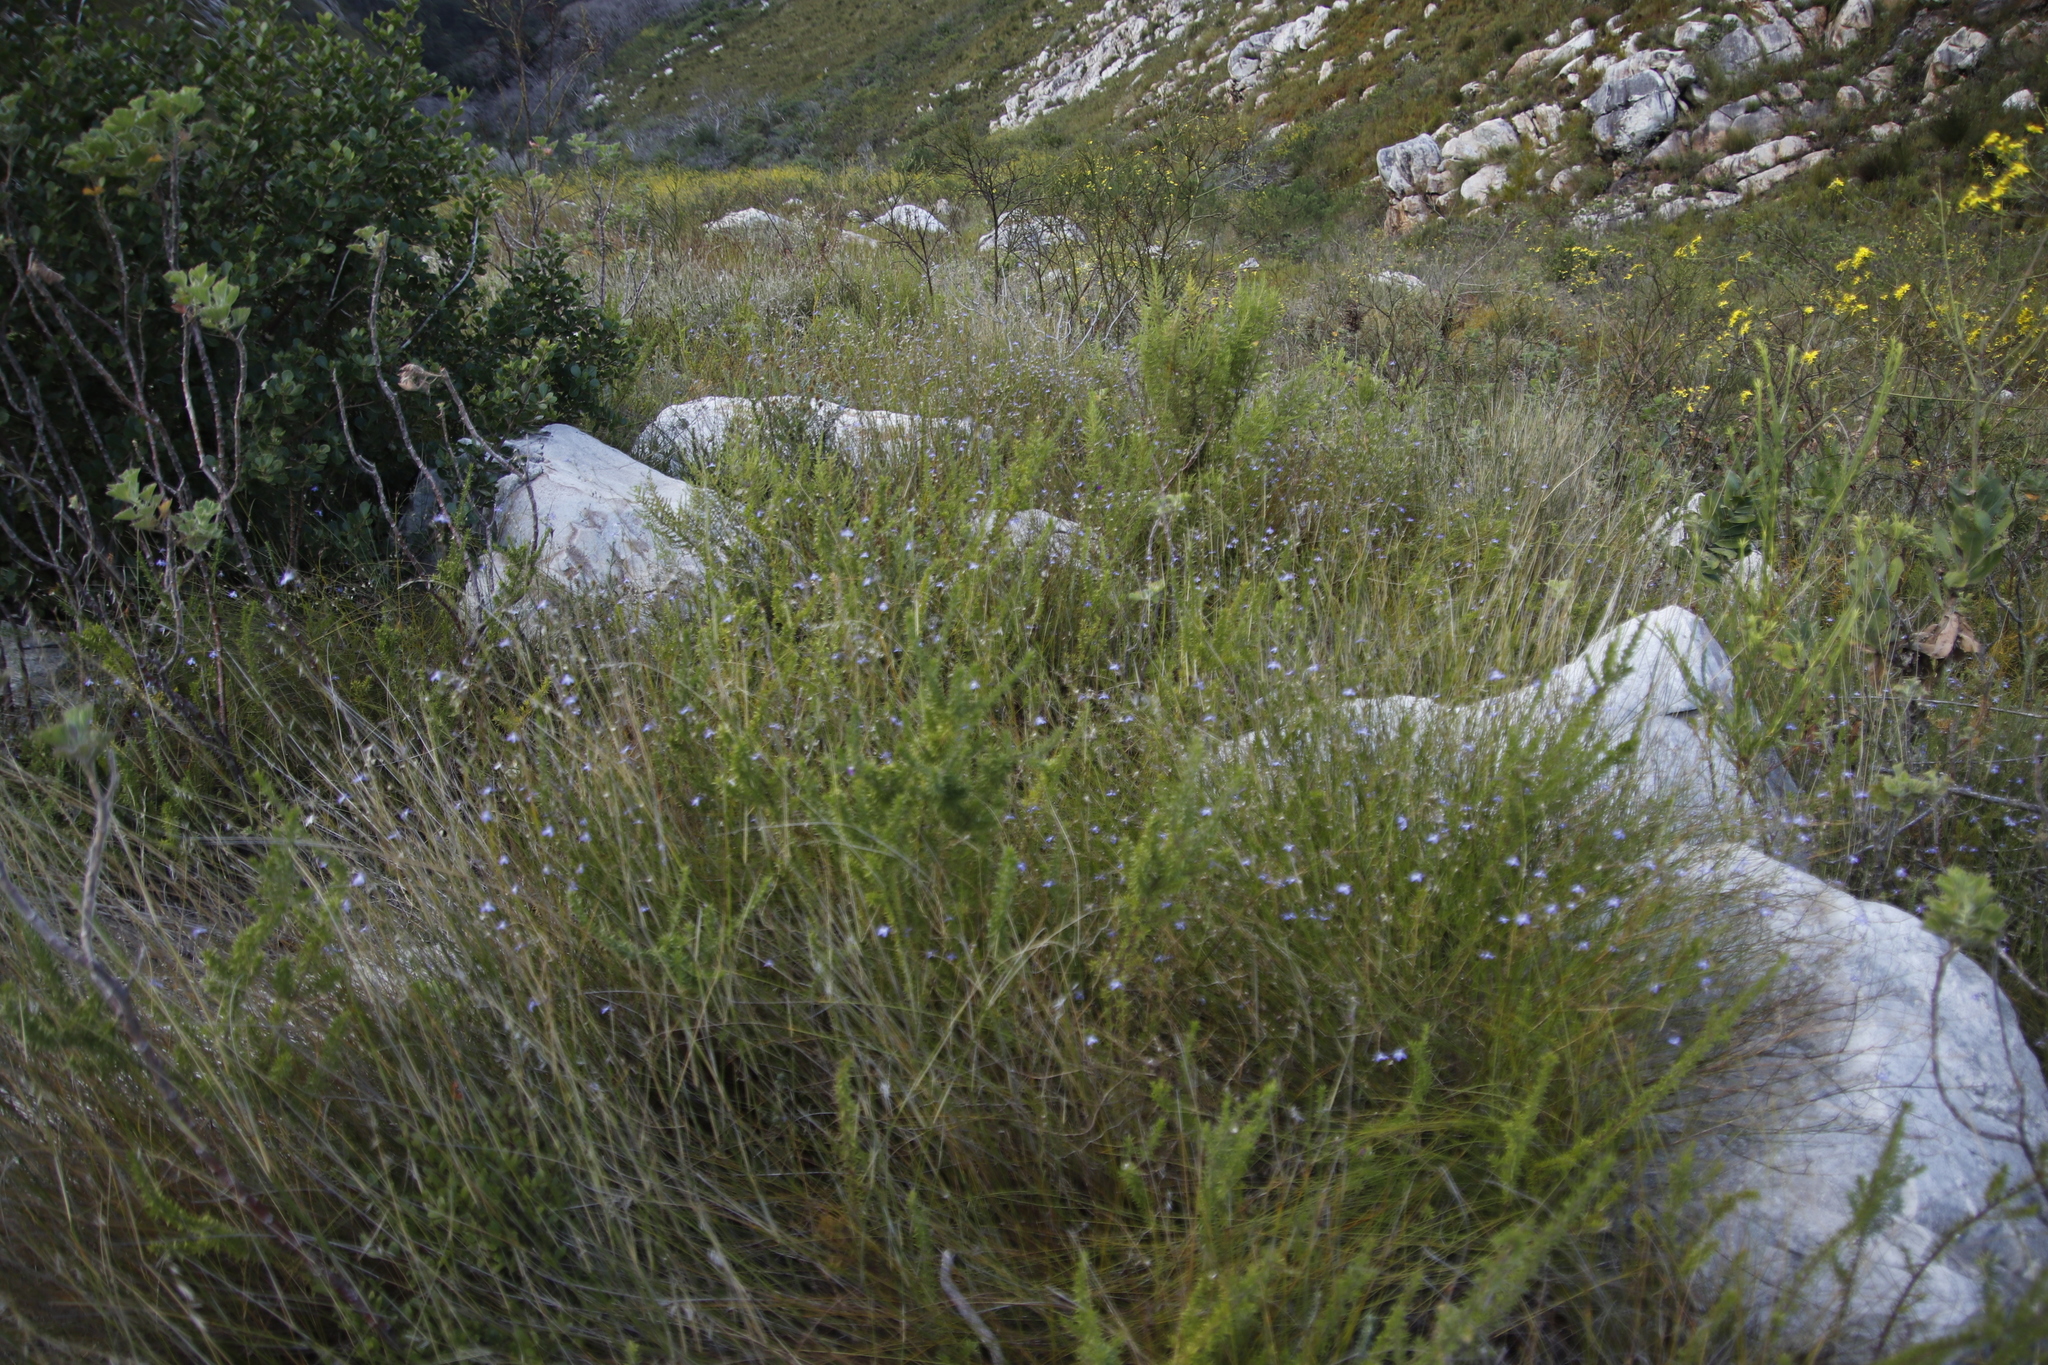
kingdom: Plantae
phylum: Tracheophyta
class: Magnoliopsida
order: Asterales
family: Campanulaceae
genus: Lobelia
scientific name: Lobelia setacea
